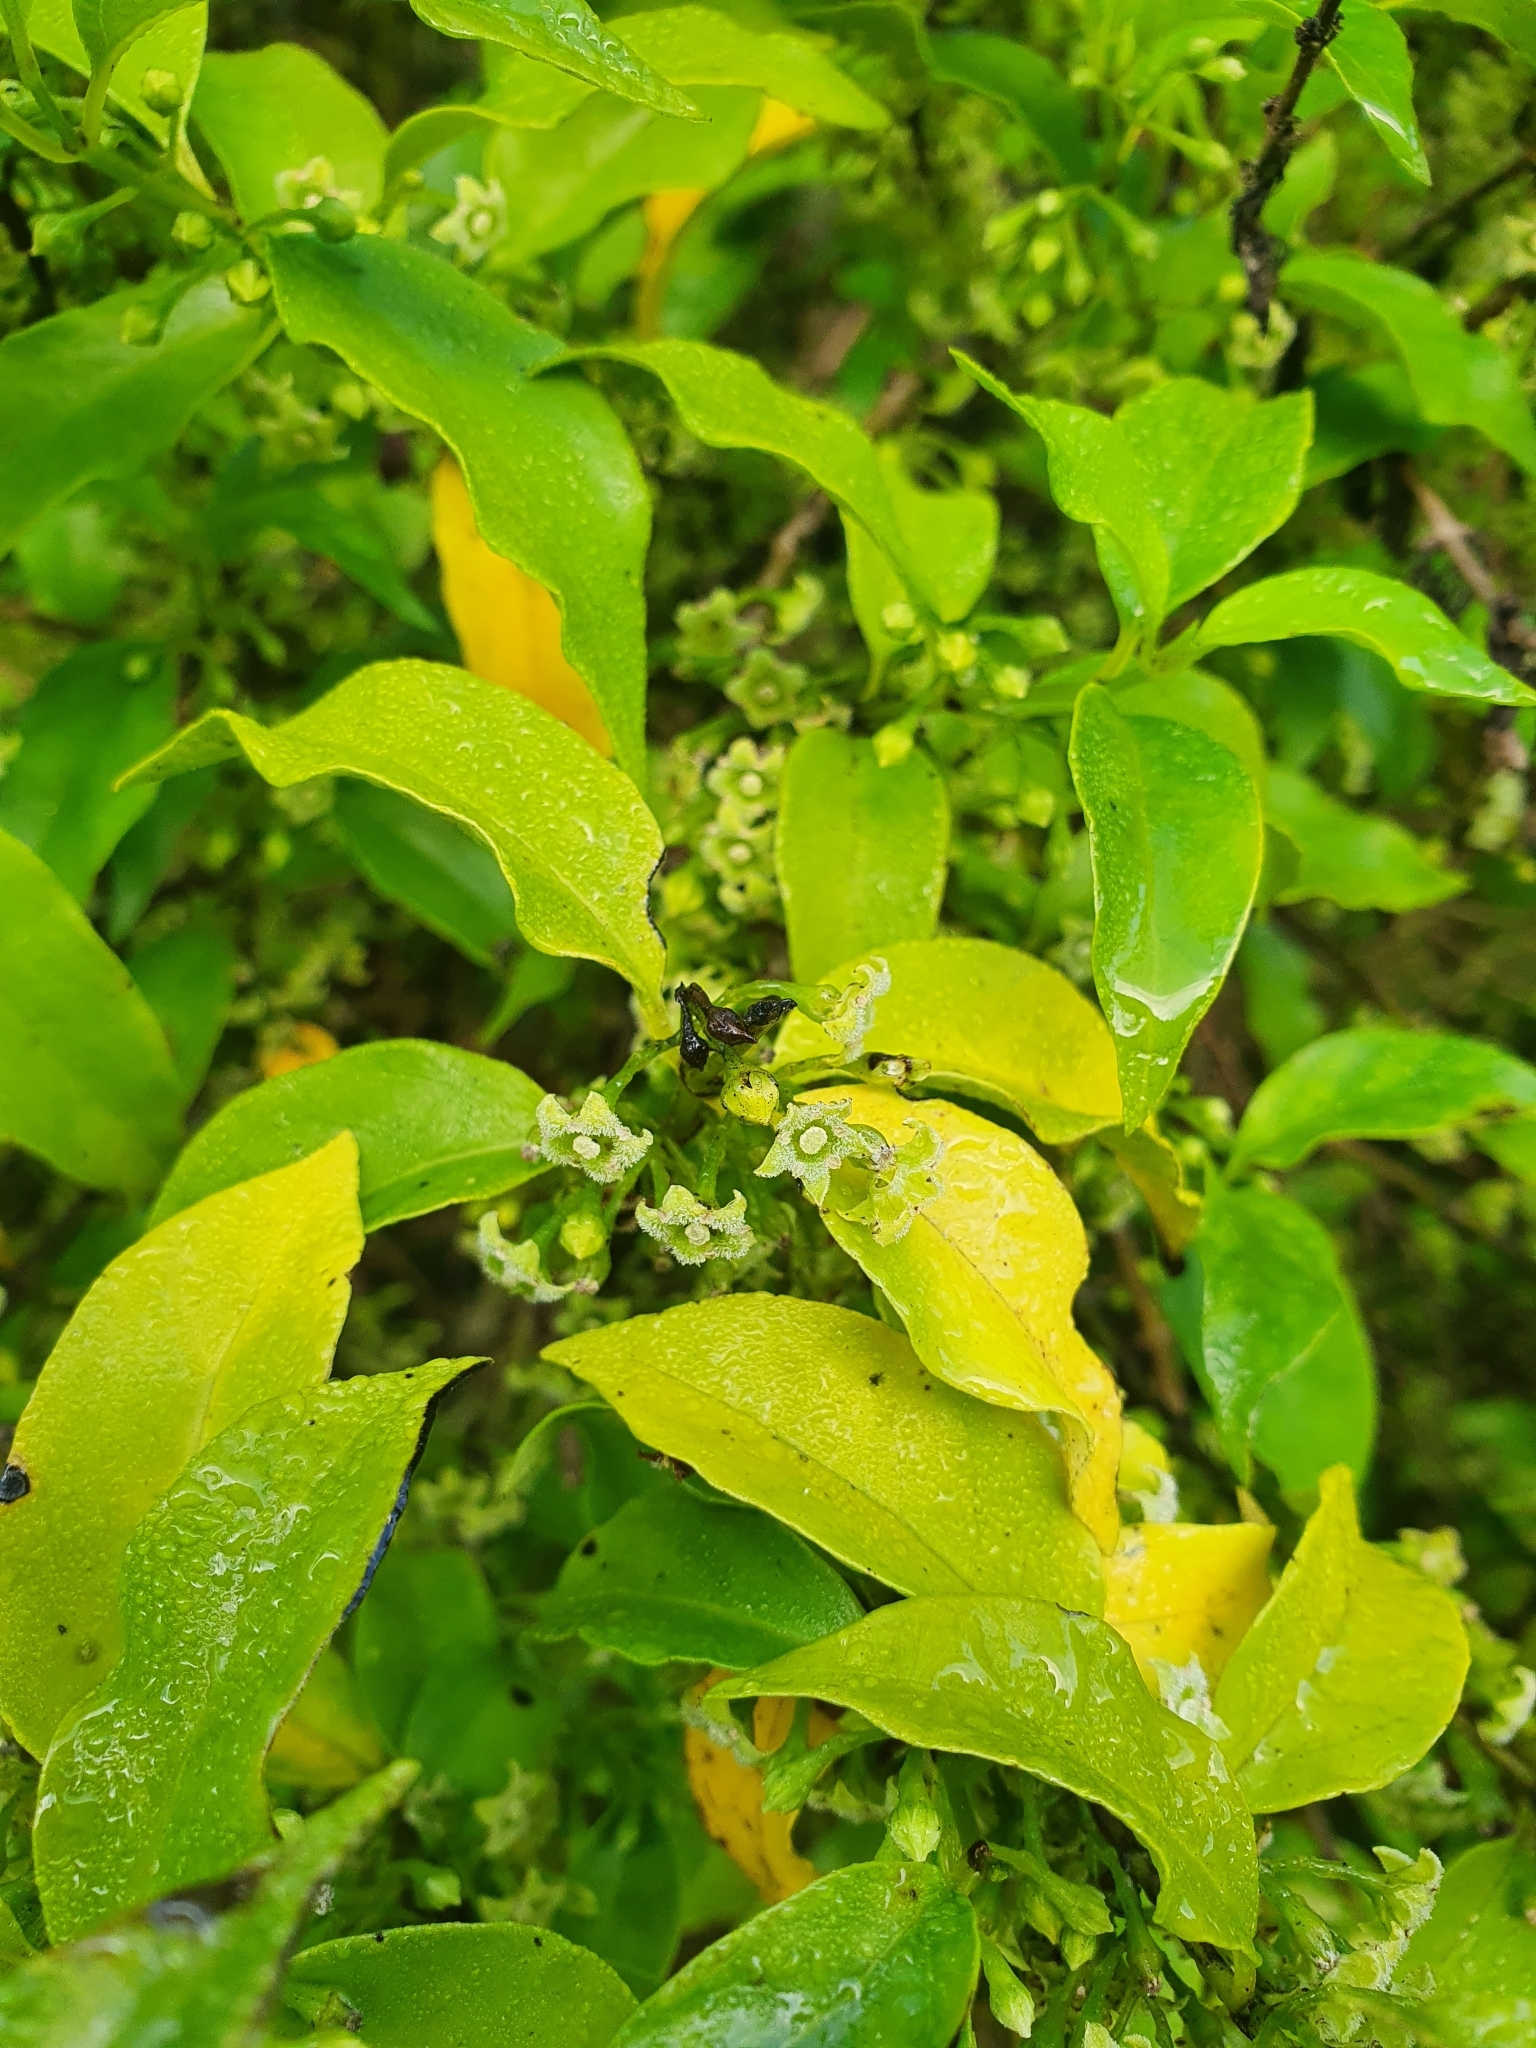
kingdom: Plantae
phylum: Tracheophyta
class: Magnoliopsida
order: Gentianales
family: Loganiaceae
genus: Geniostoma
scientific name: Geniostoma ligustrifolium
